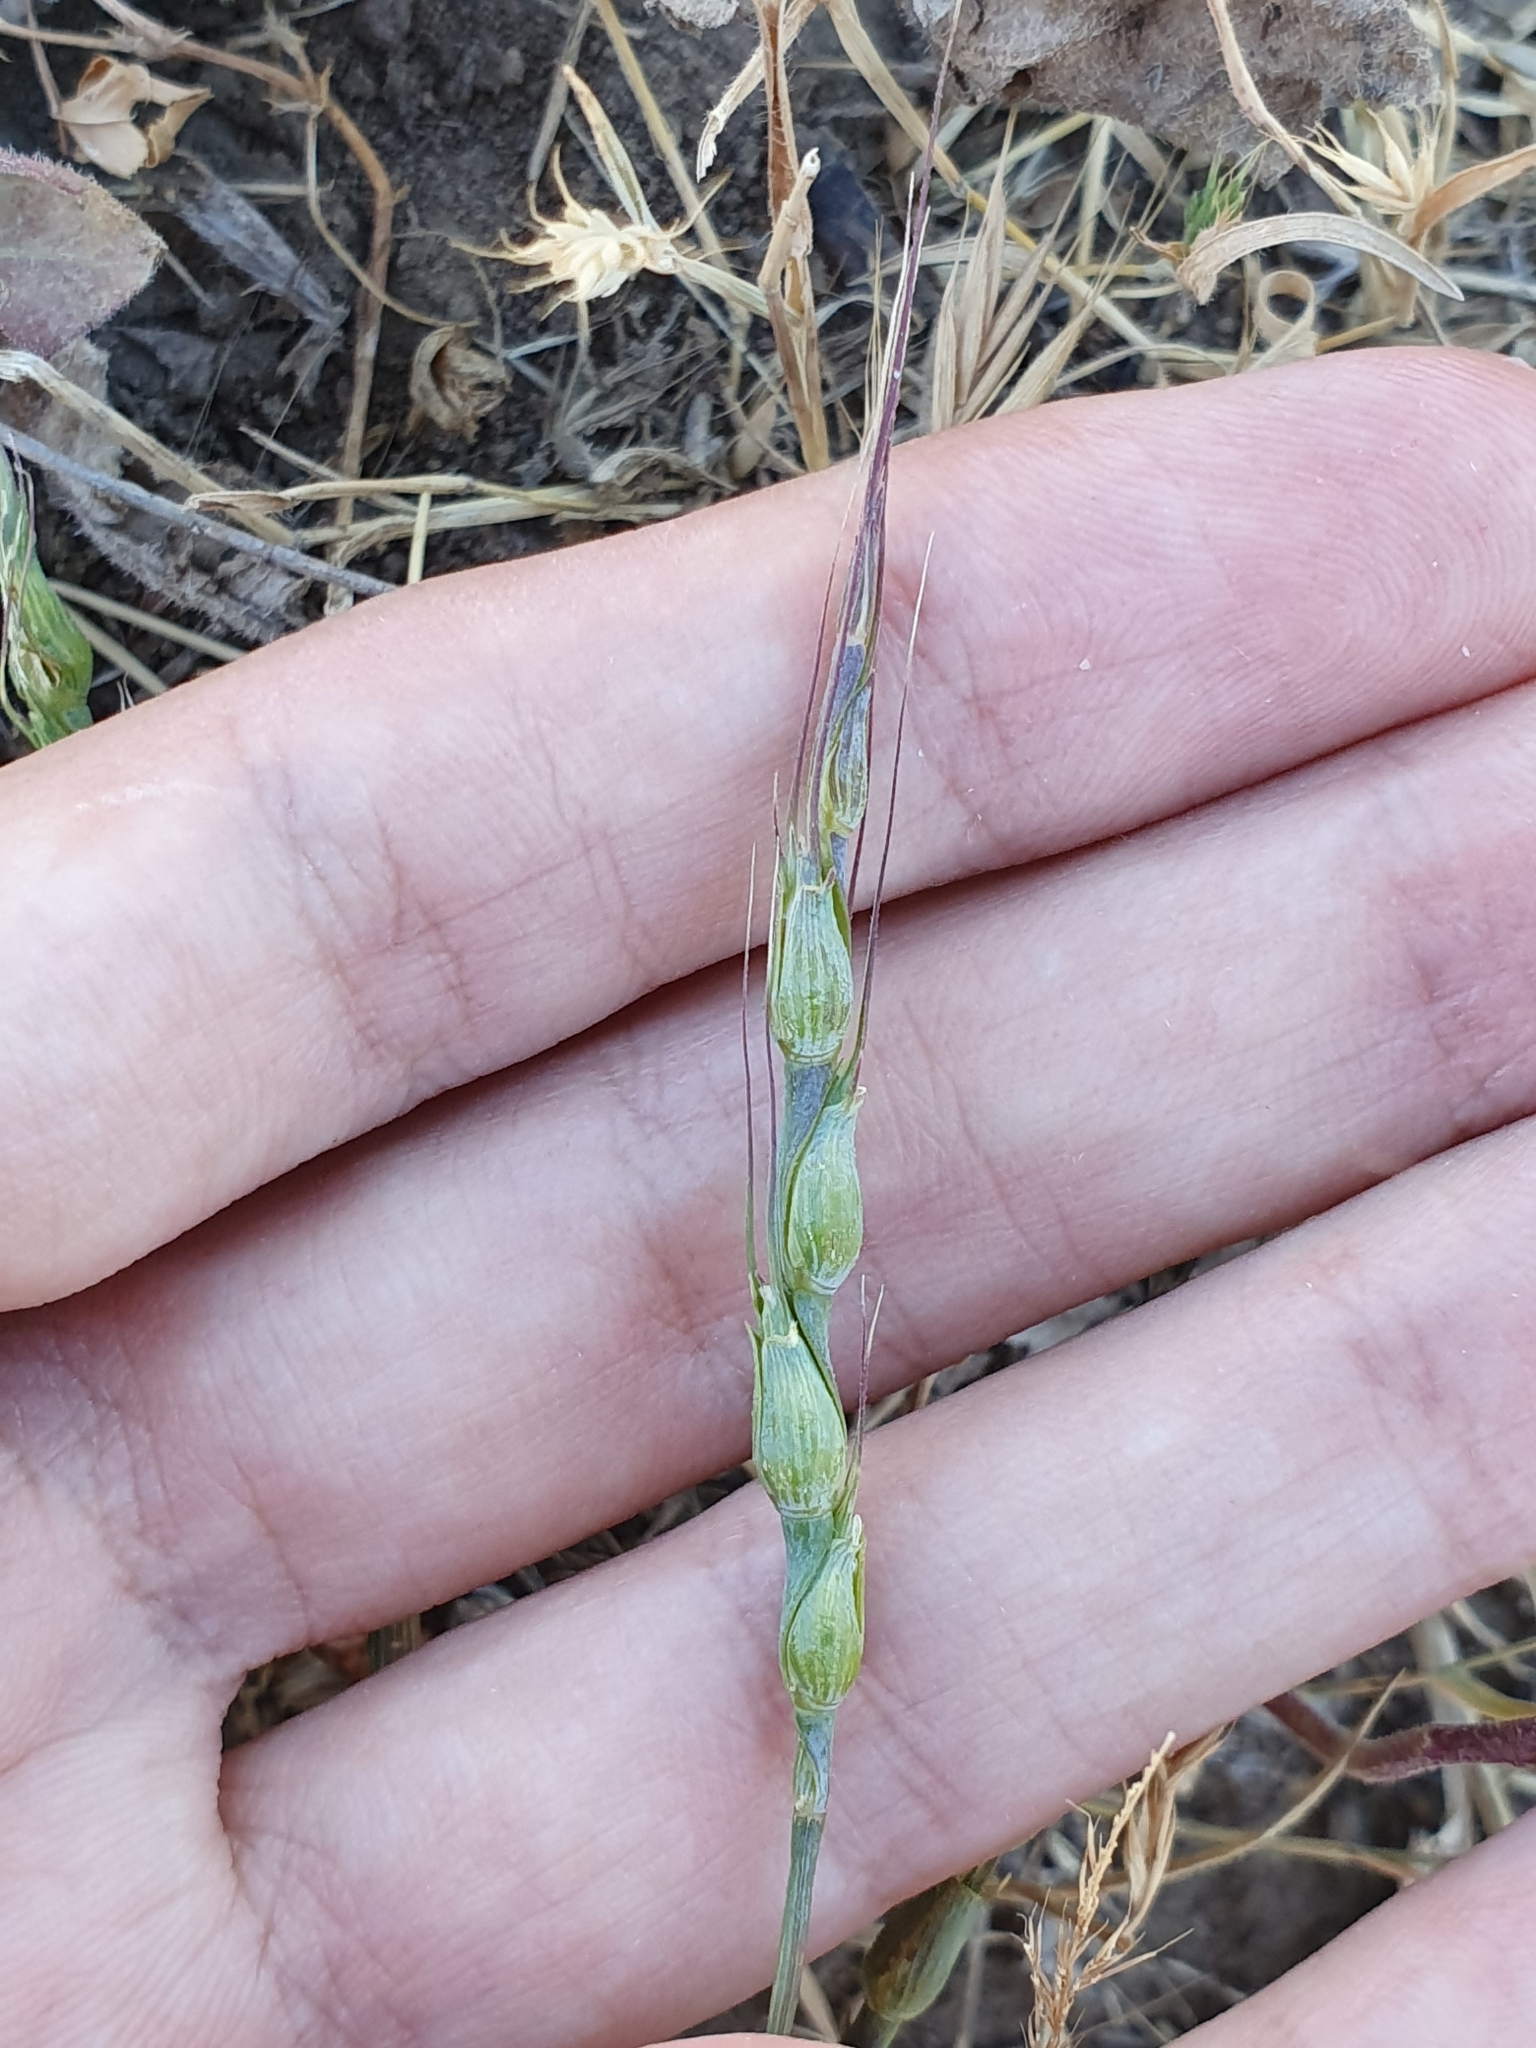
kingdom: Plantae
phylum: Tracheophyta
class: Liliopsida
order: Poales
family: Poaceae
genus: Aegilops
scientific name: Aegilops ventricosa
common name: Swollen goat grass
